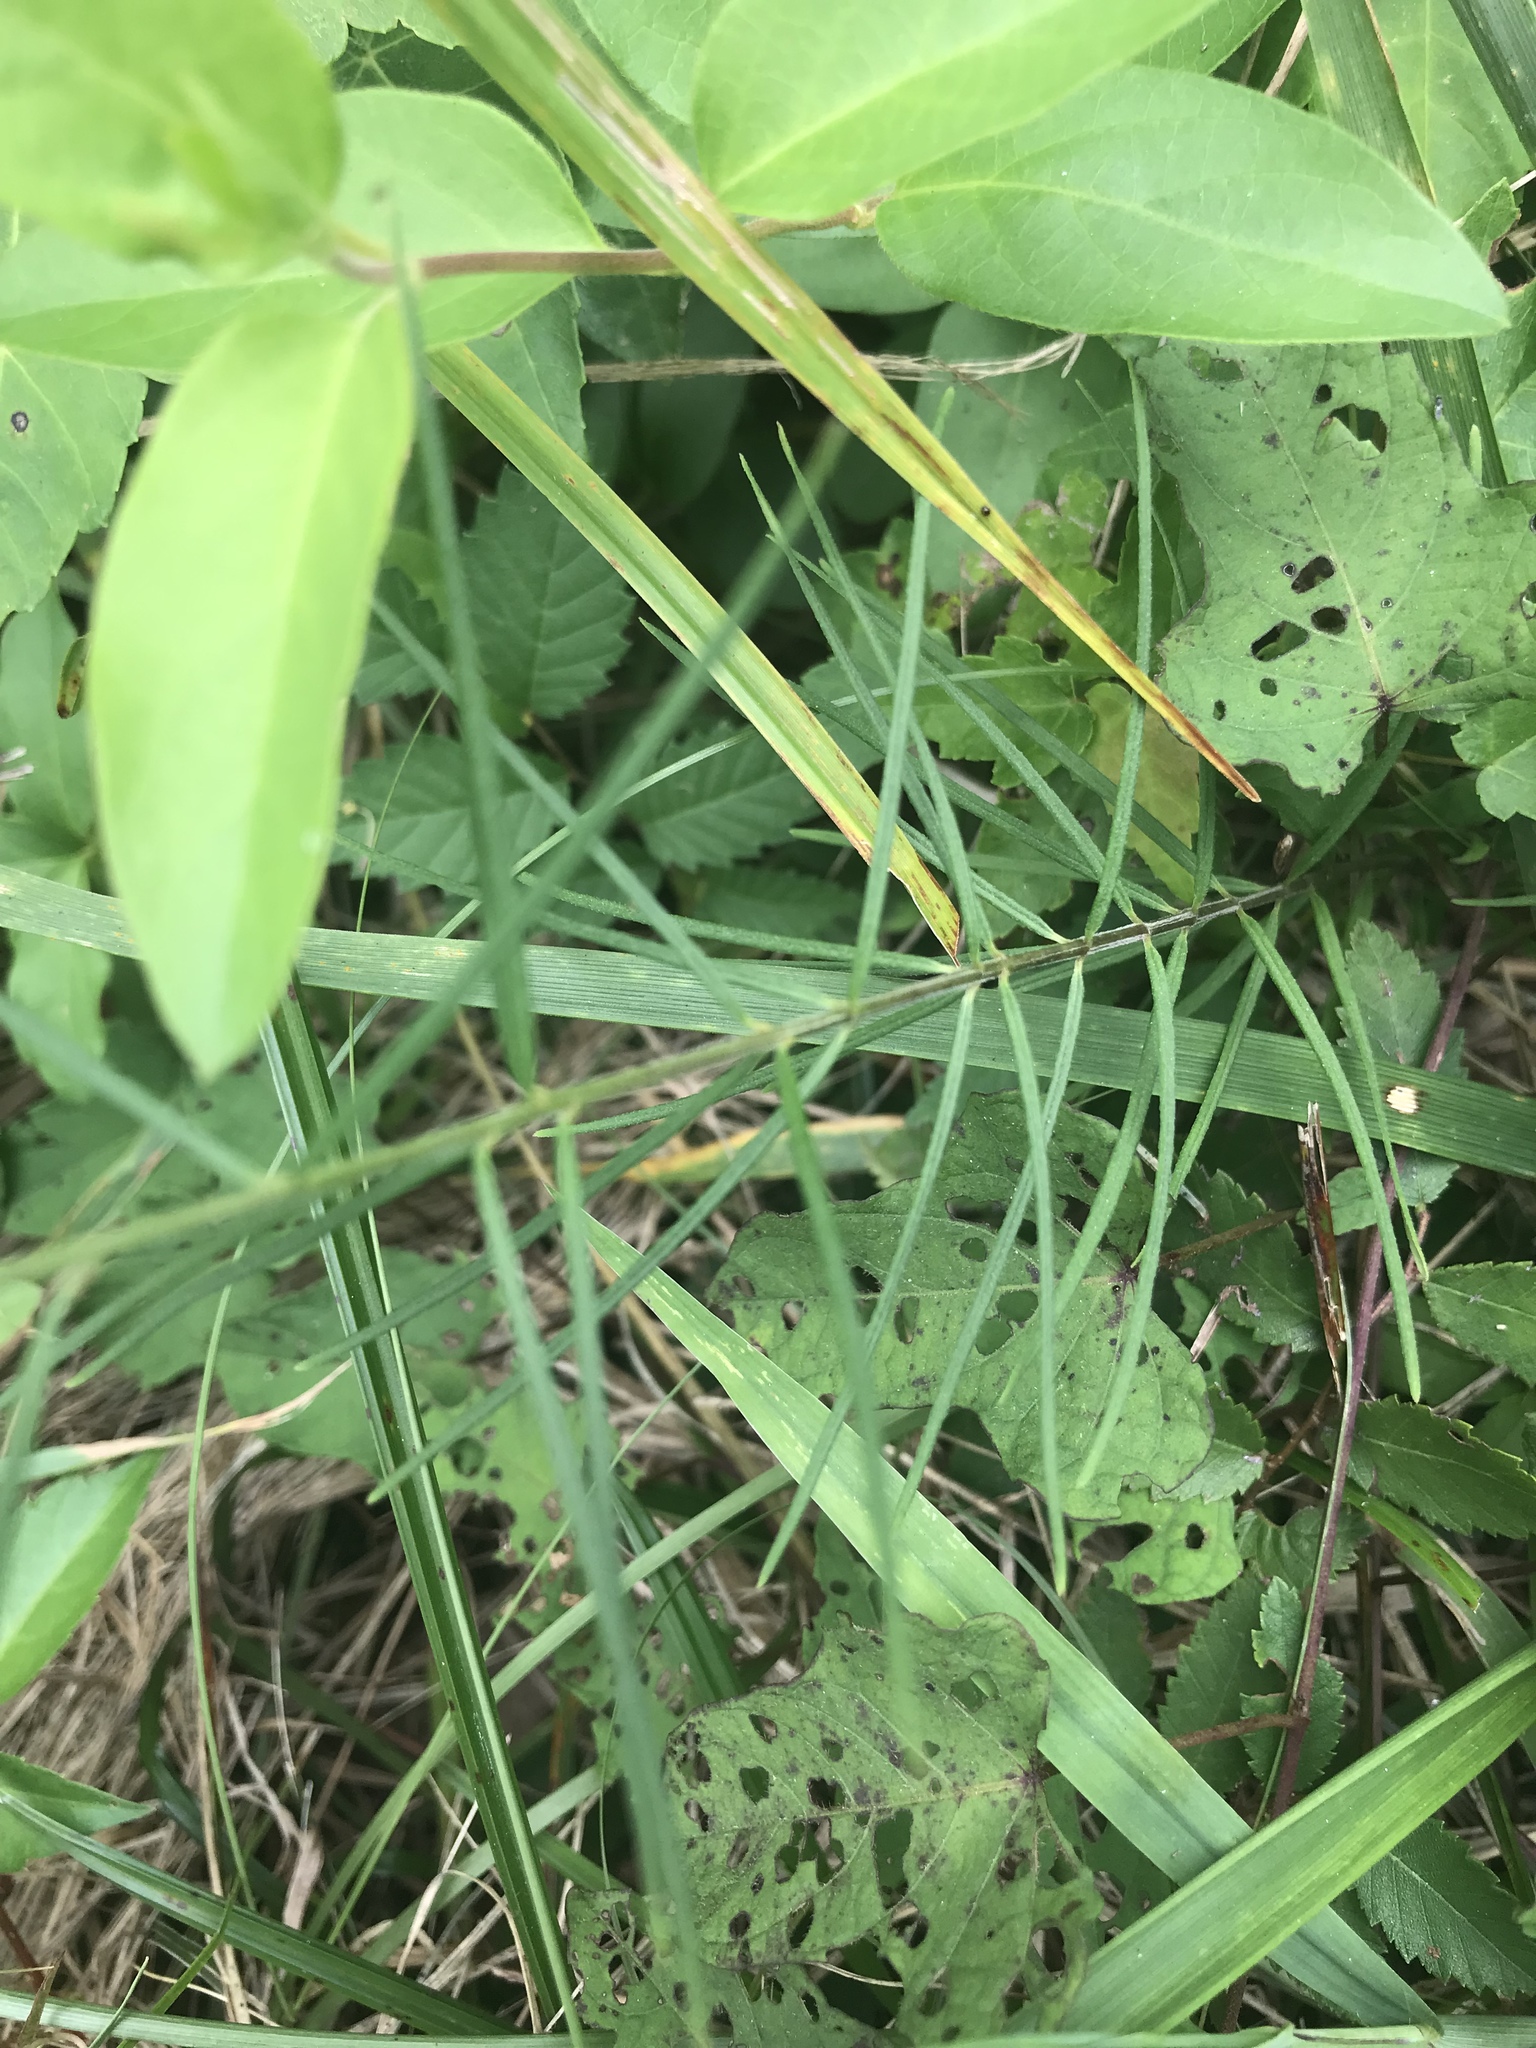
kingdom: Plantae
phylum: Tracheophyta
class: Magnoliopsida
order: Gentianales
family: Apocynaceae
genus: Asclepias
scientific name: Asclepias verticillata
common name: Eastern whorled milkweed
